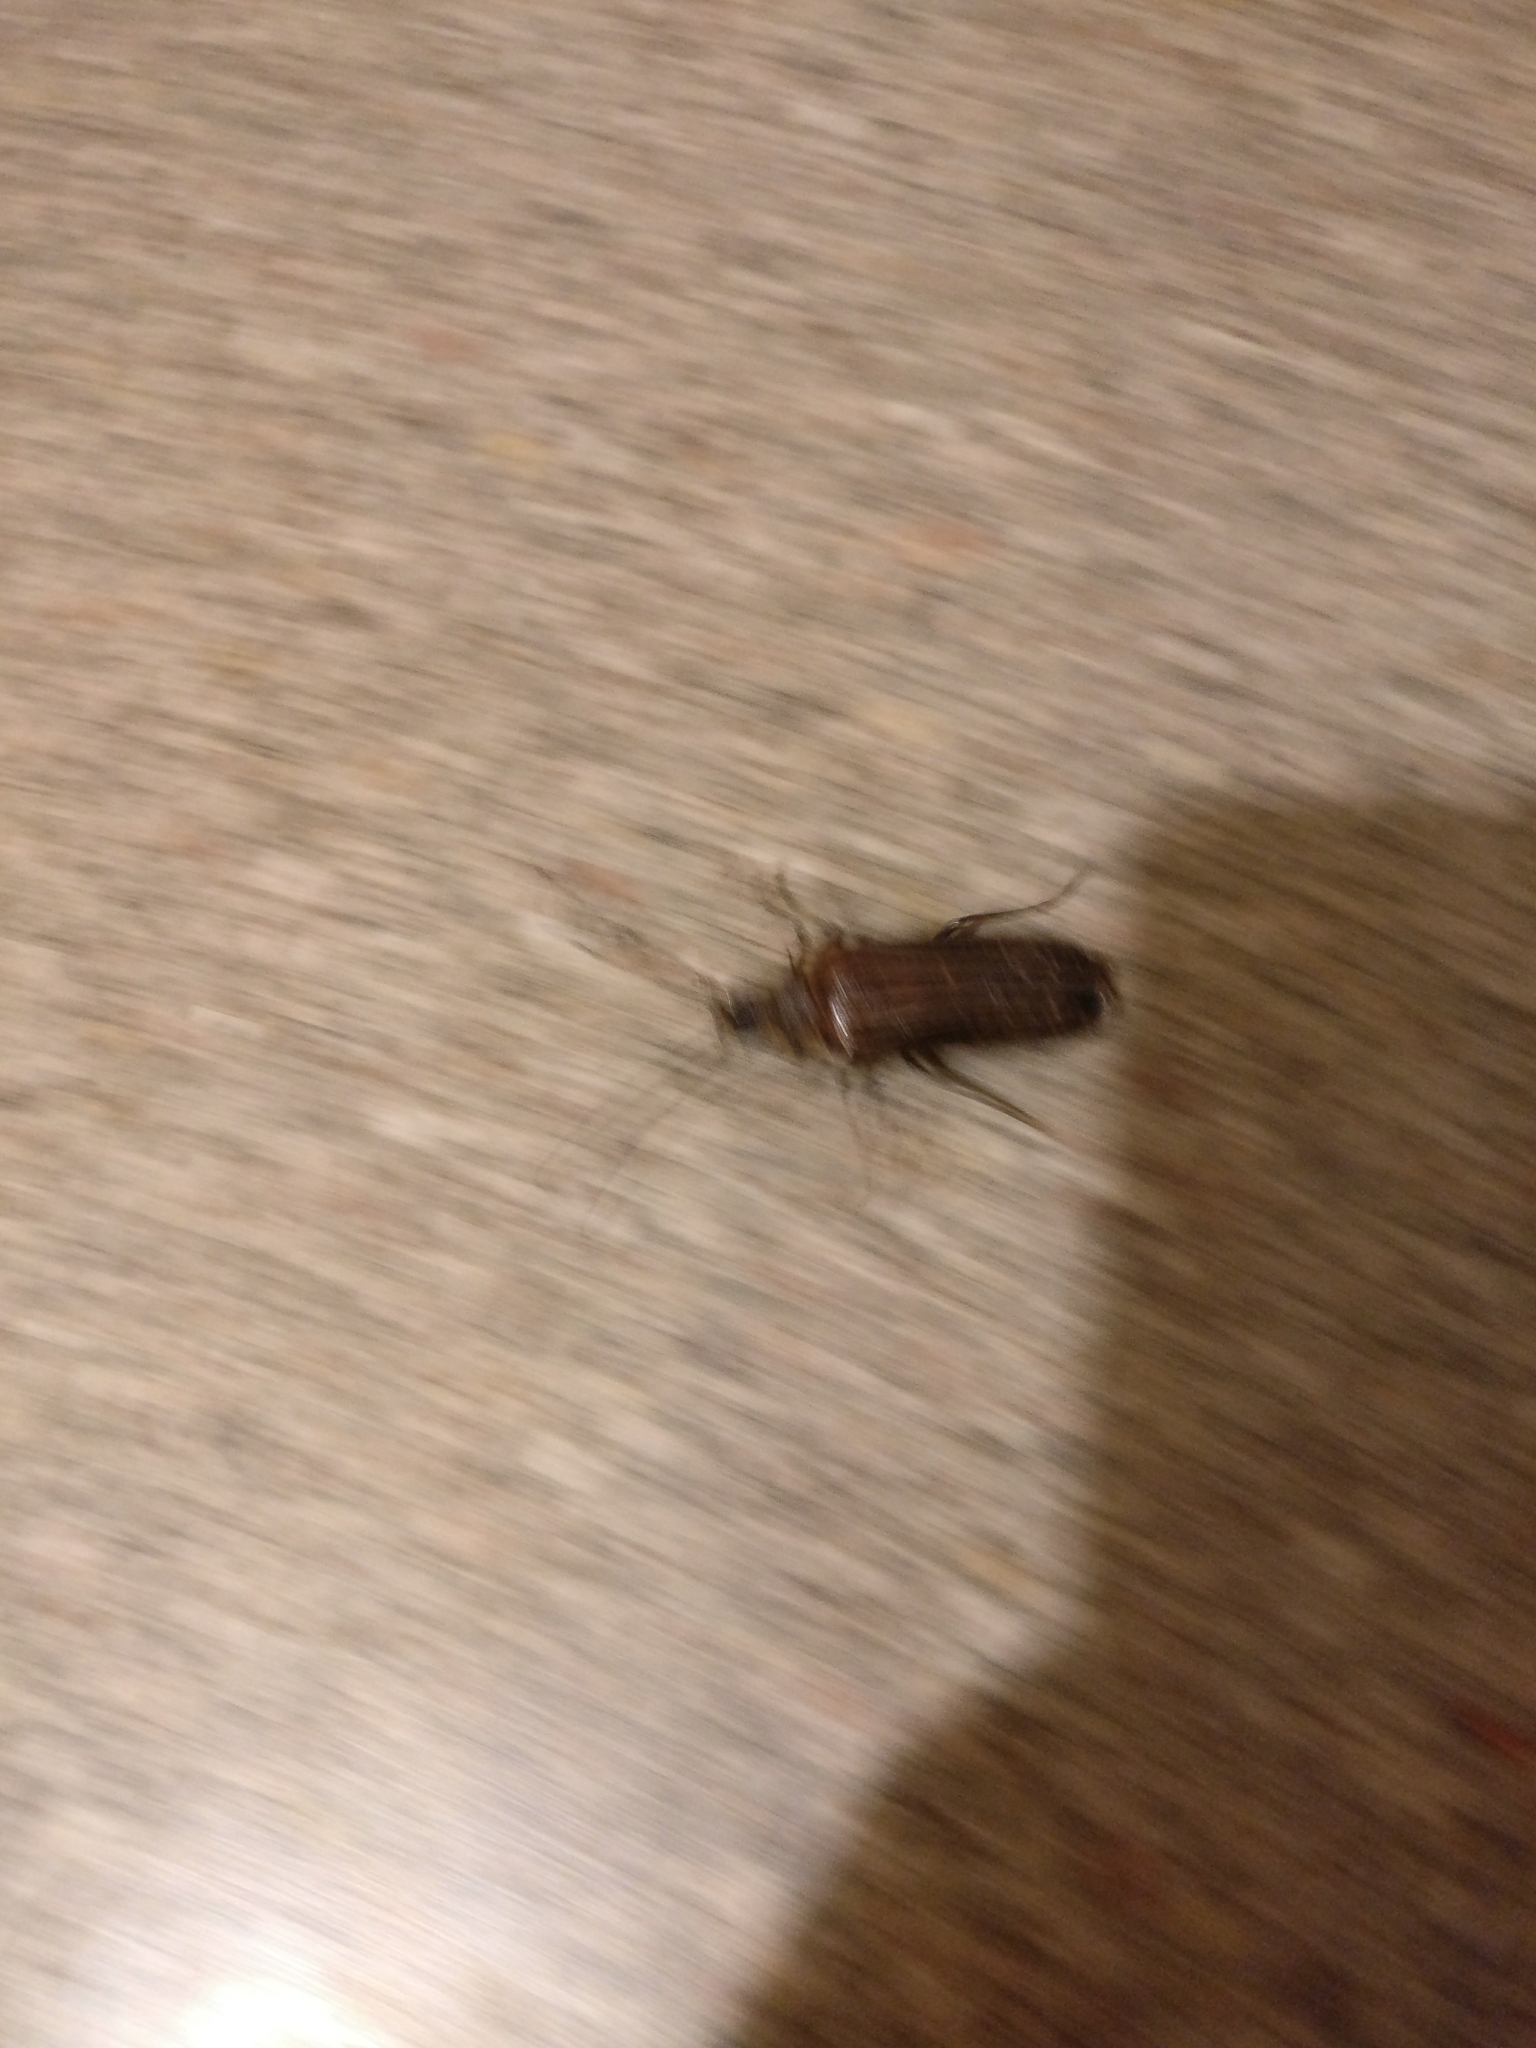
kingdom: Animalia
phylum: Arthropoda
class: Insecta
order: Coleoptera
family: Cerambycidae
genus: Prionoplus
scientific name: Prionoplus reticularis
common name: Huhu beetle
